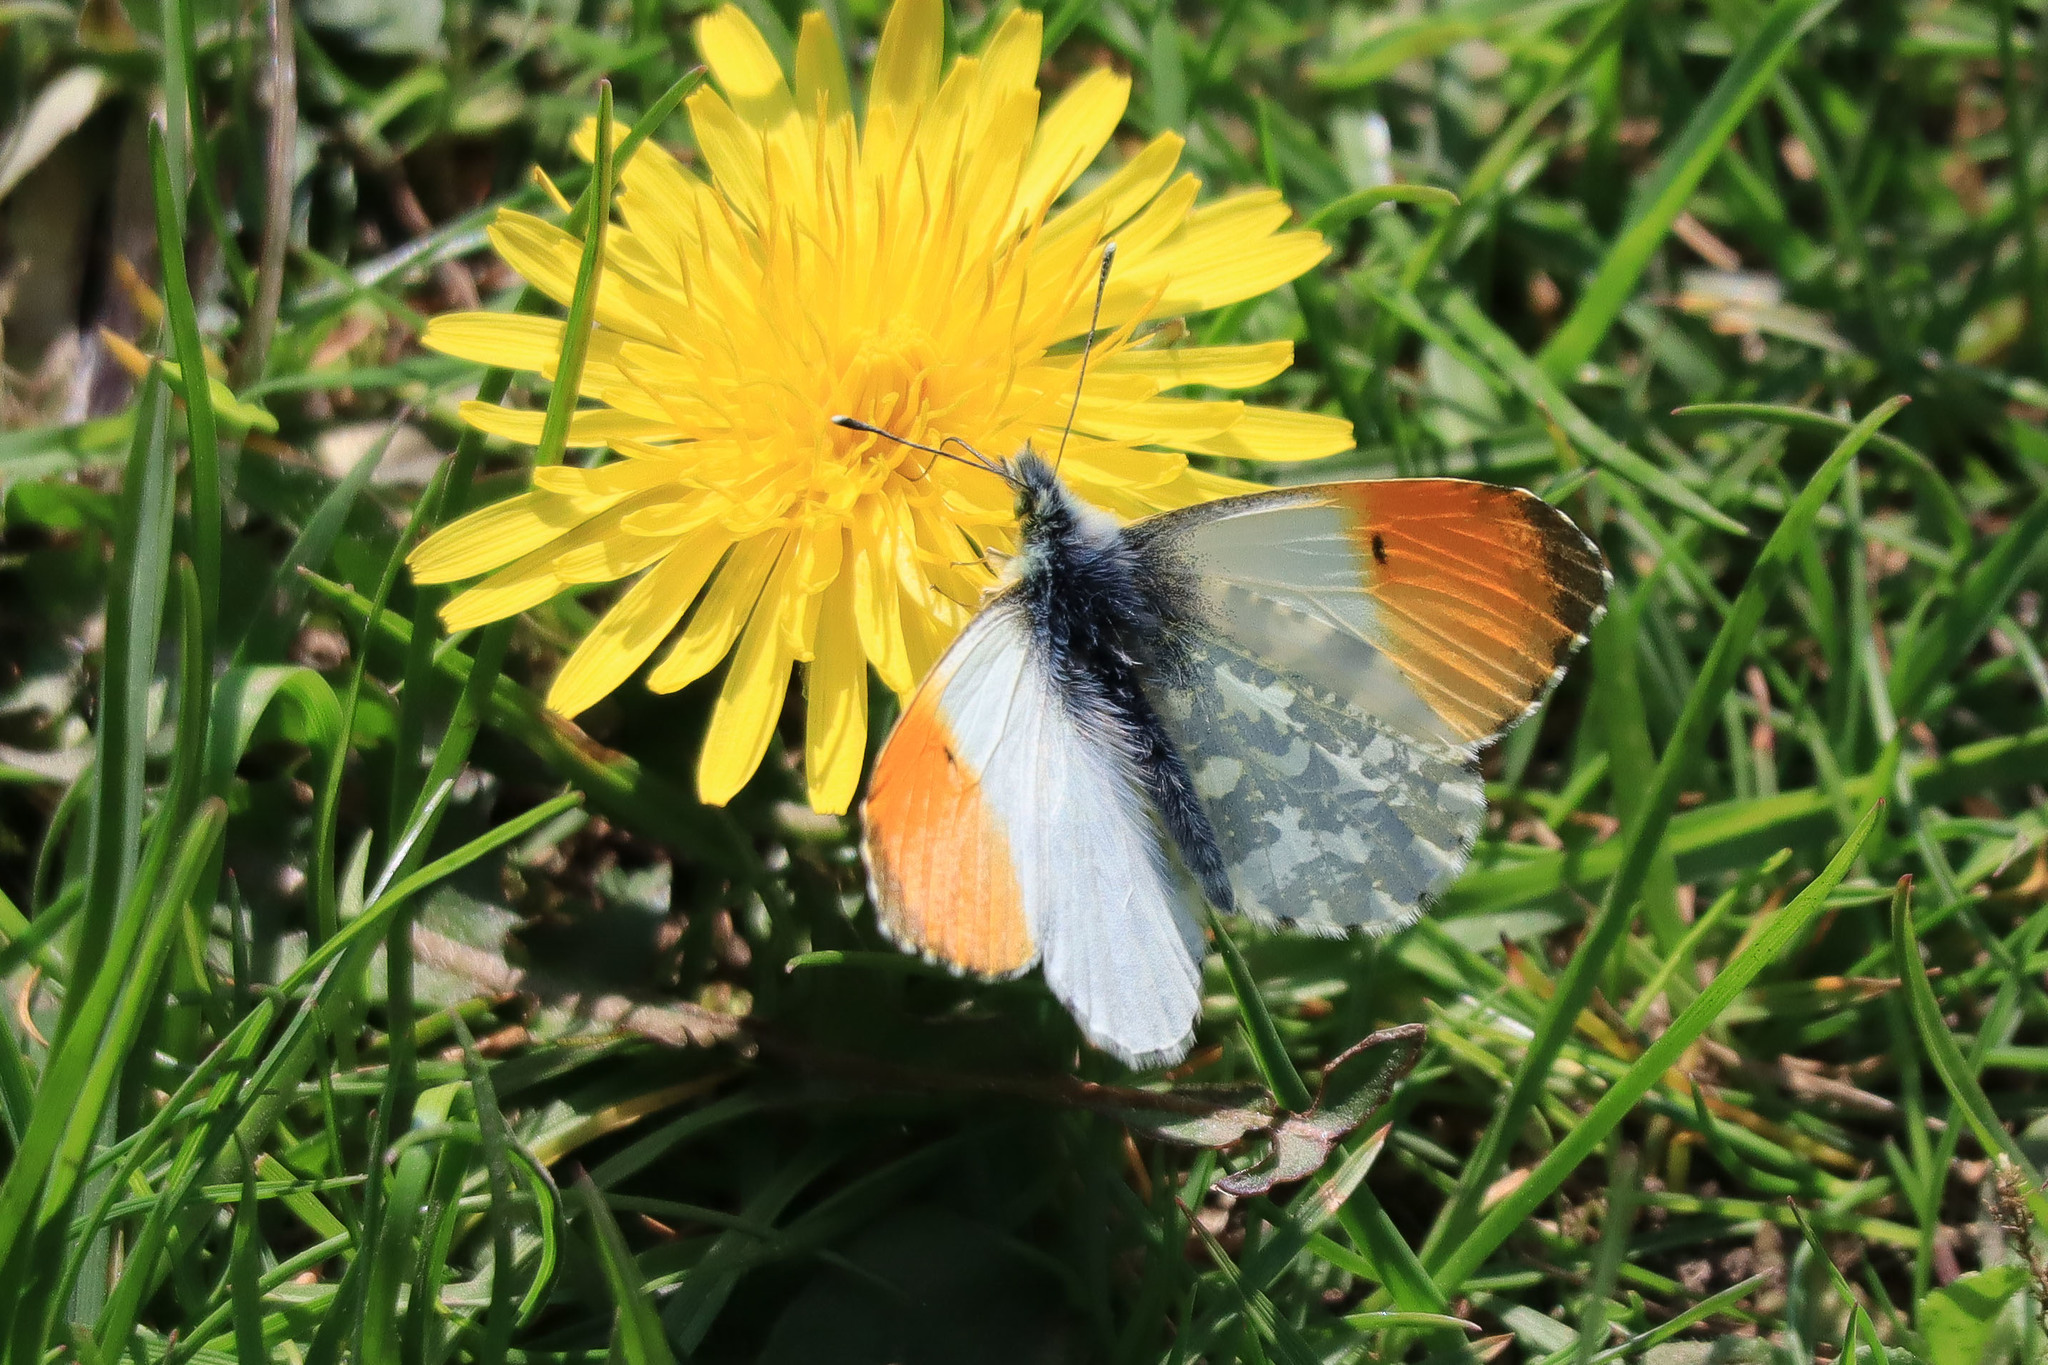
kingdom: Animalia
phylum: Arthropoda
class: Insecta
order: Lepidoptera
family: Pieridae
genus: Anthocharis
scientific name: Anthocharis cardamines
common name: Orange-tip
